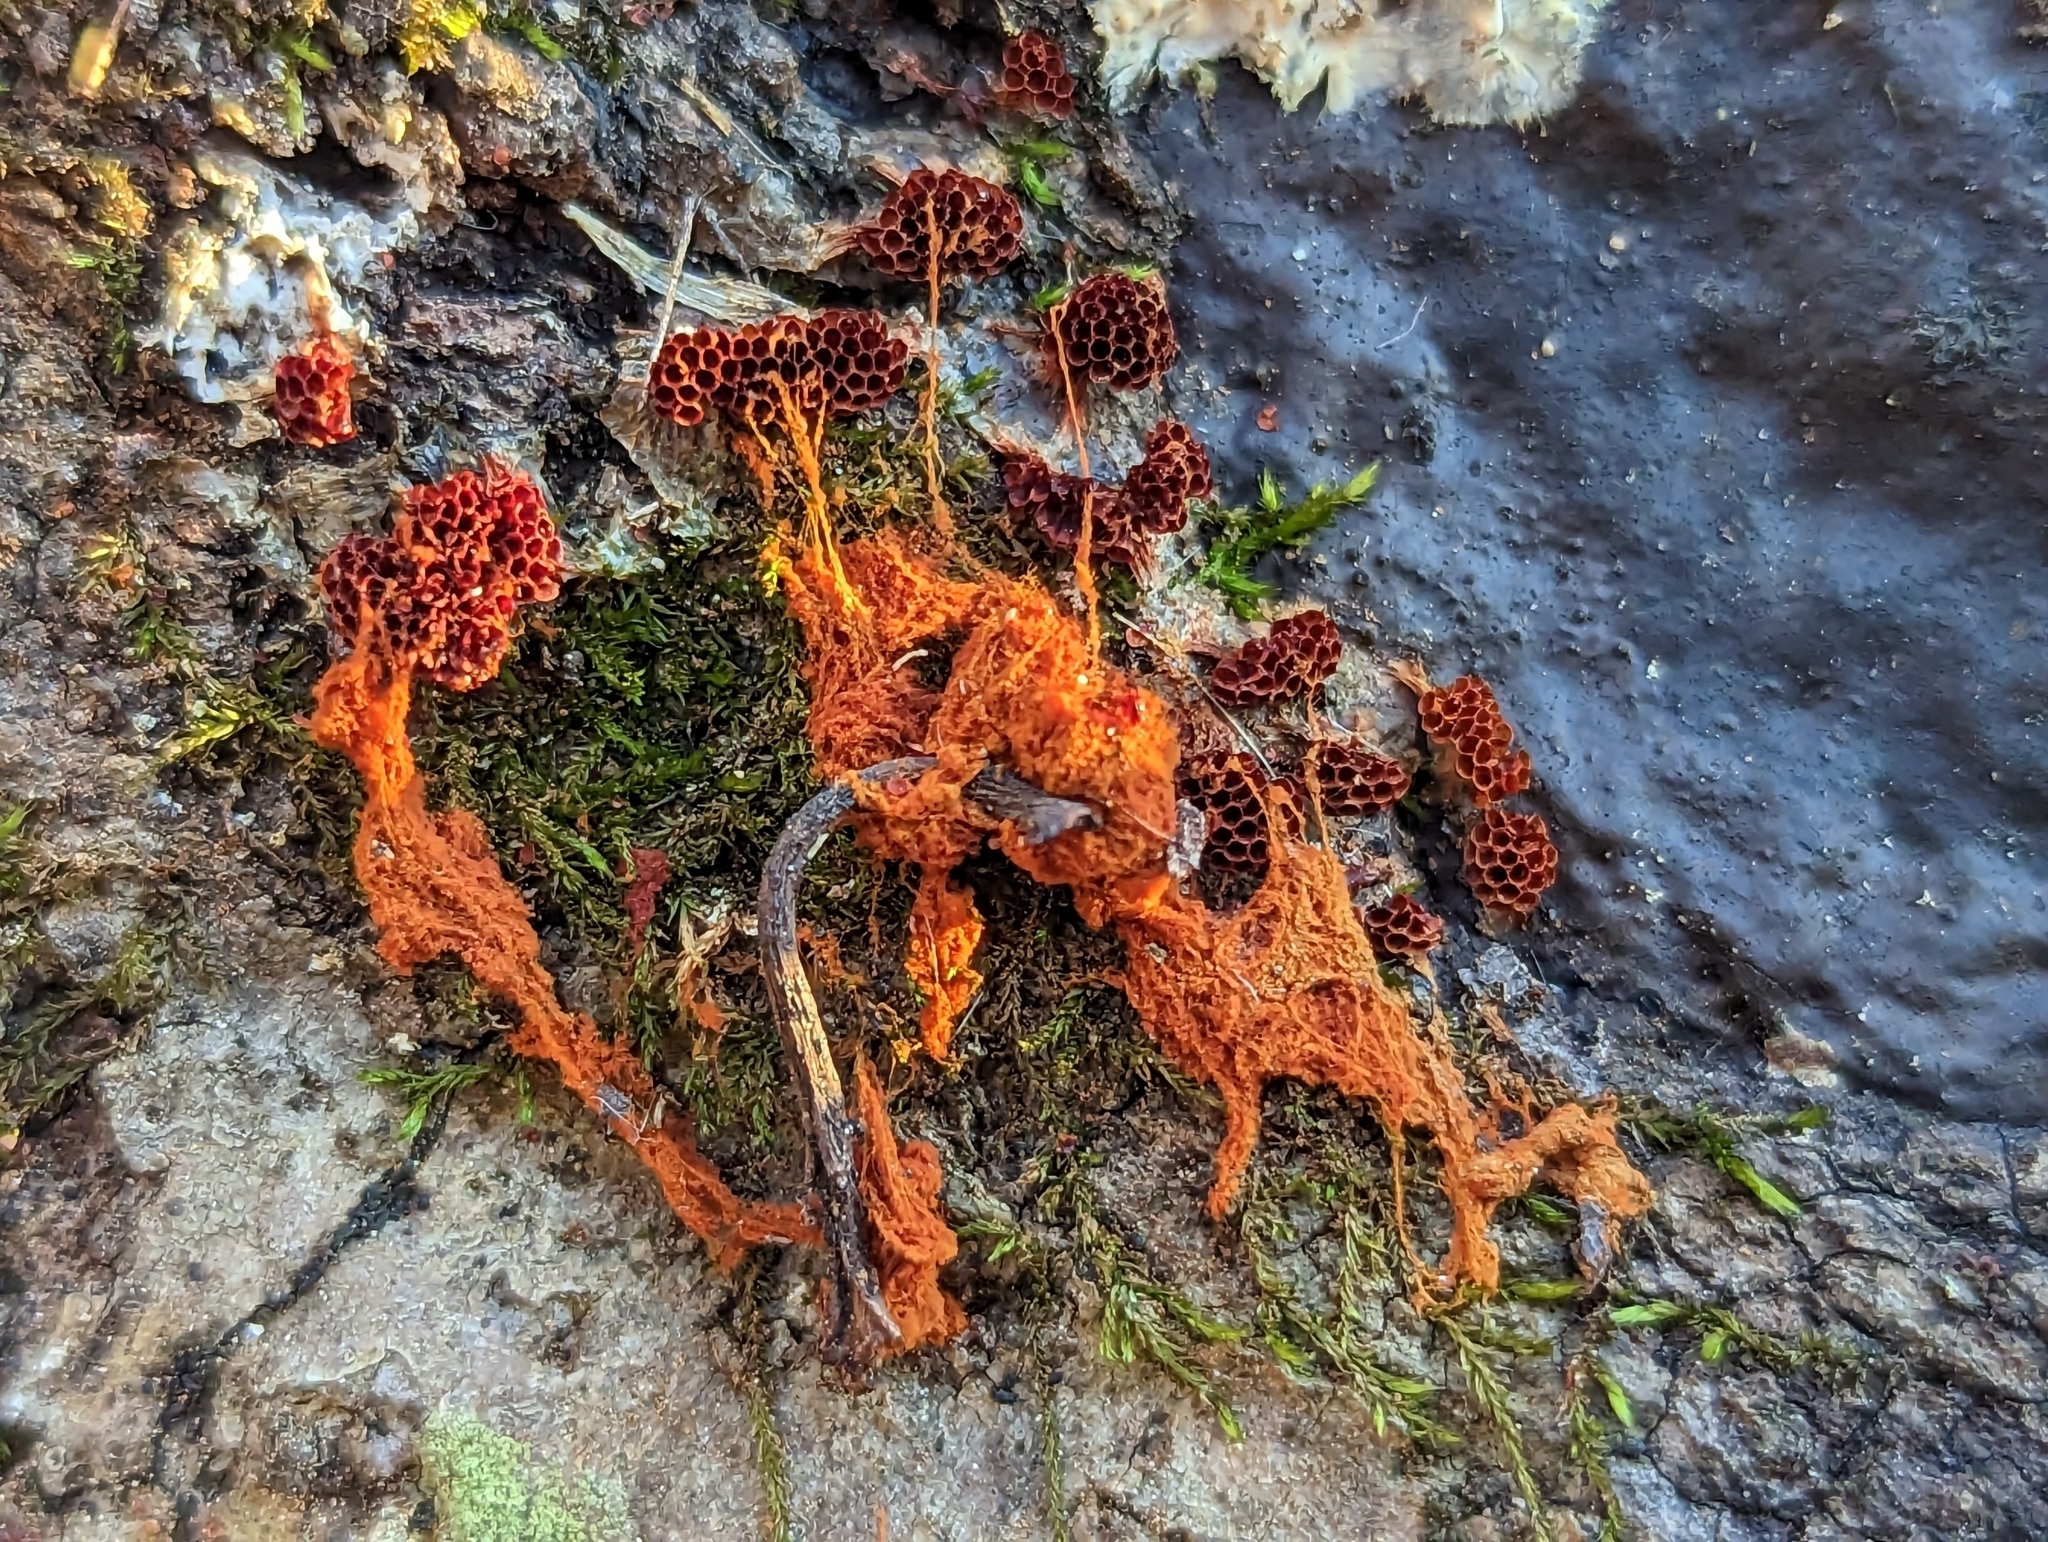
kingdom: Protozoa
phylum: Mycetozoa
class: Myxomycetes
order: Trichiales
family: Trichiaceae
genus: Metatrichia
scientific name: Metatrichia vesparia
